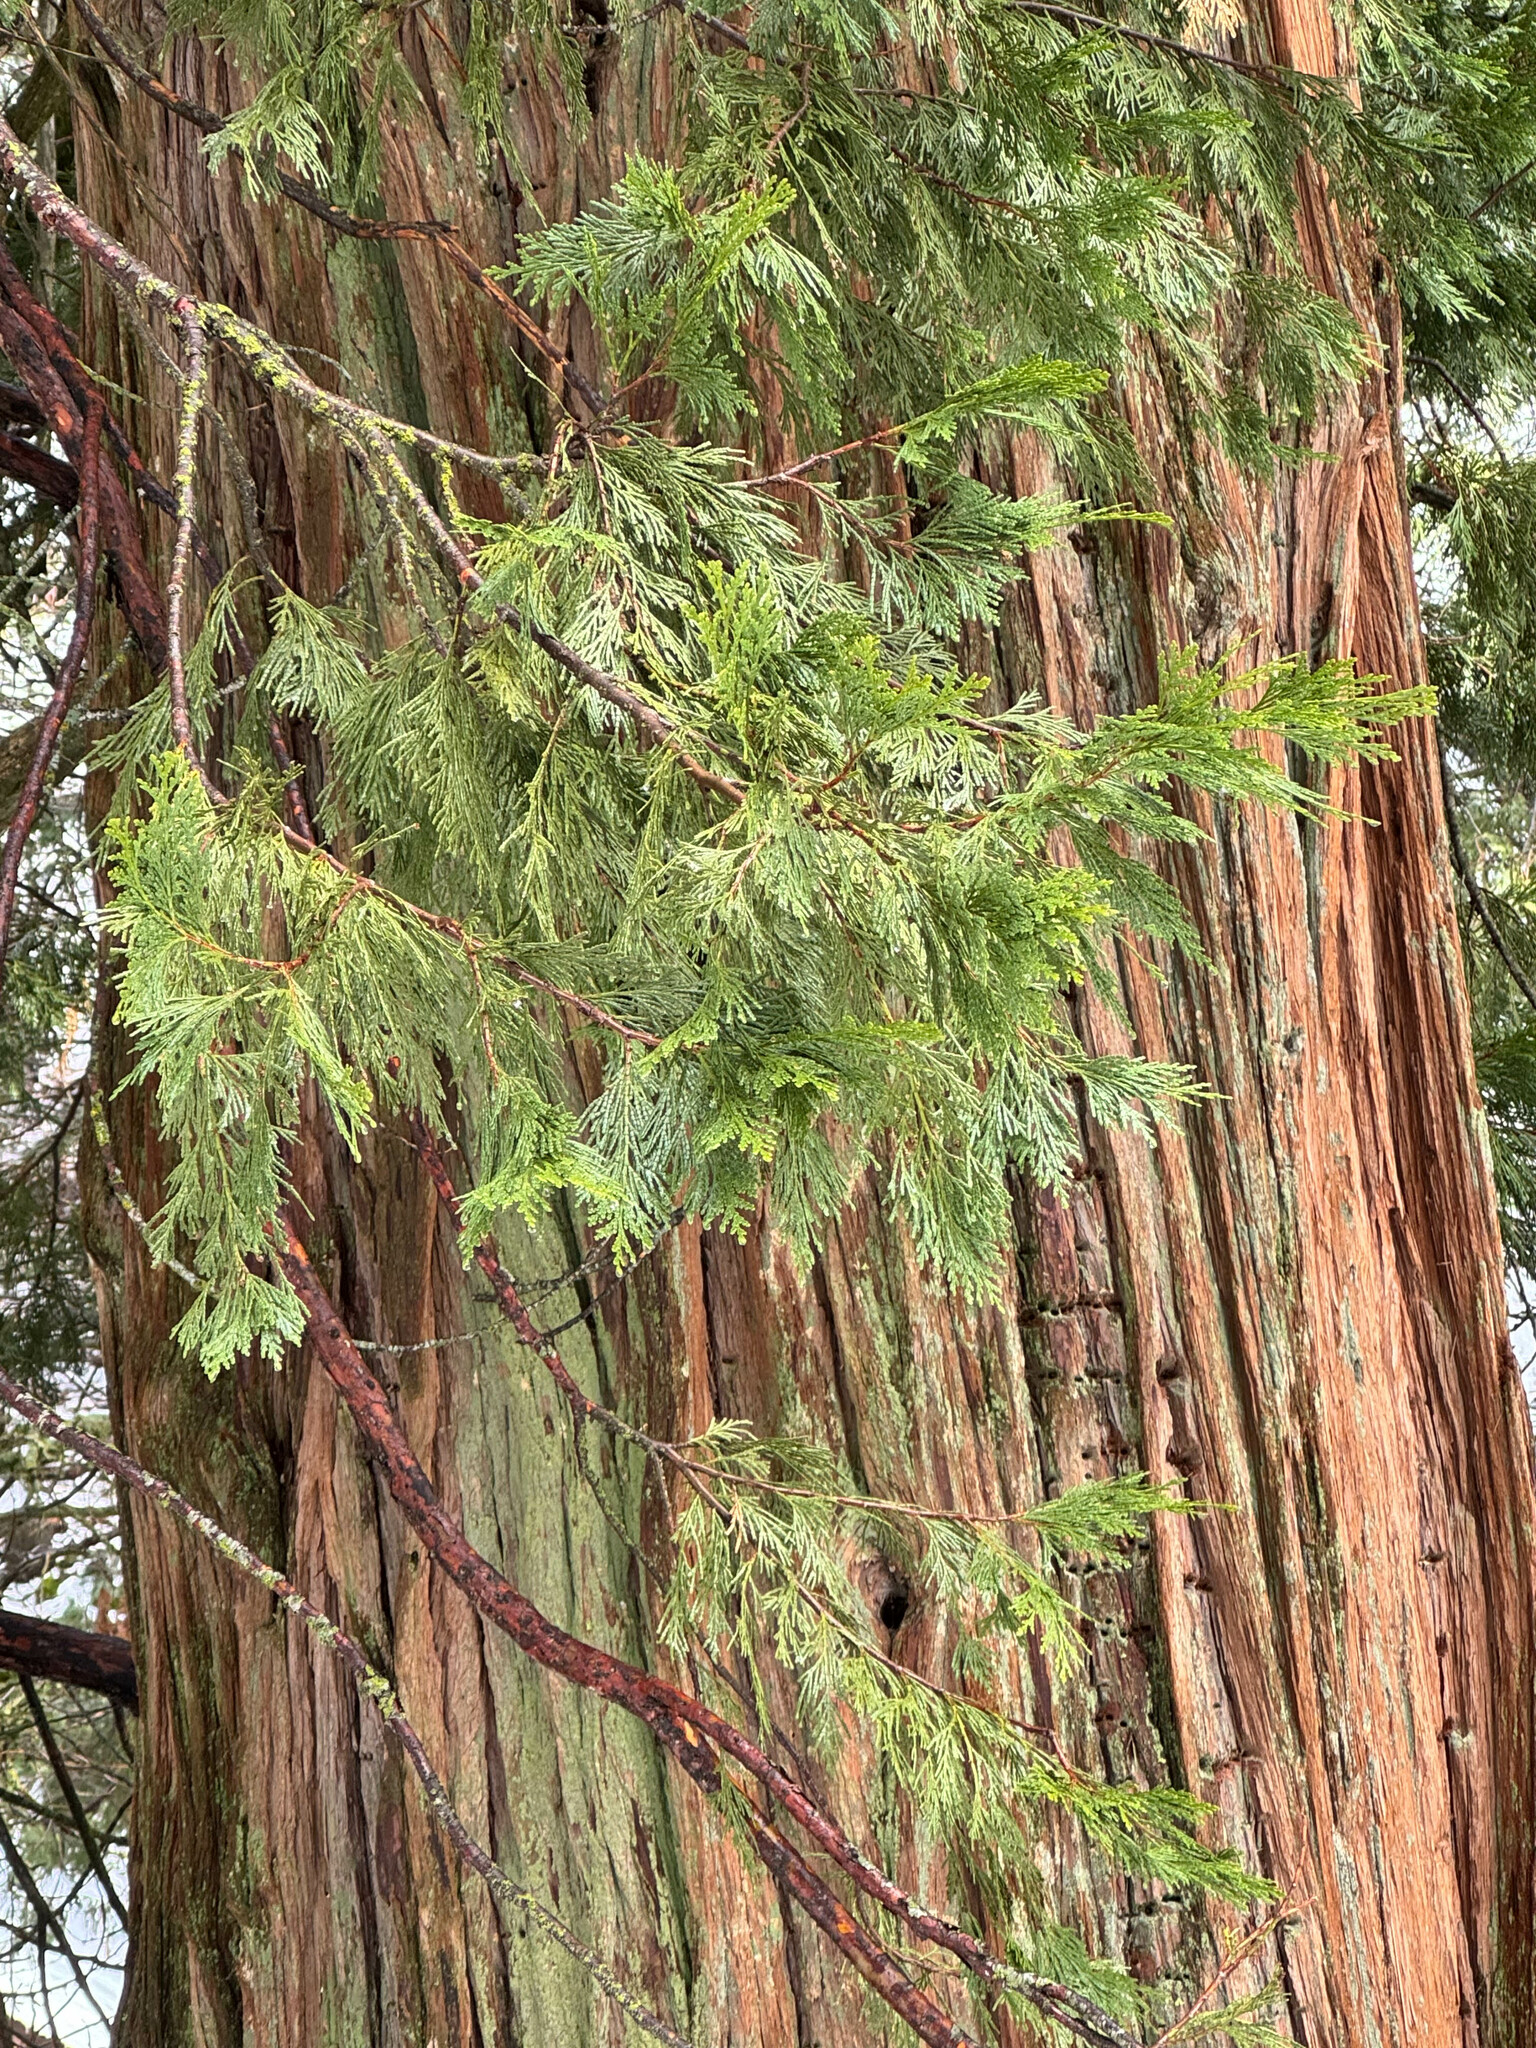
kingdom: Plantae
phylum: Tracheophyta
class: Pinopsida
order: Pinales
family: Cupressaceae
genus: Calocedrus
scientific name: Calocedrus decurrens
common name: Californian incense-cedar
